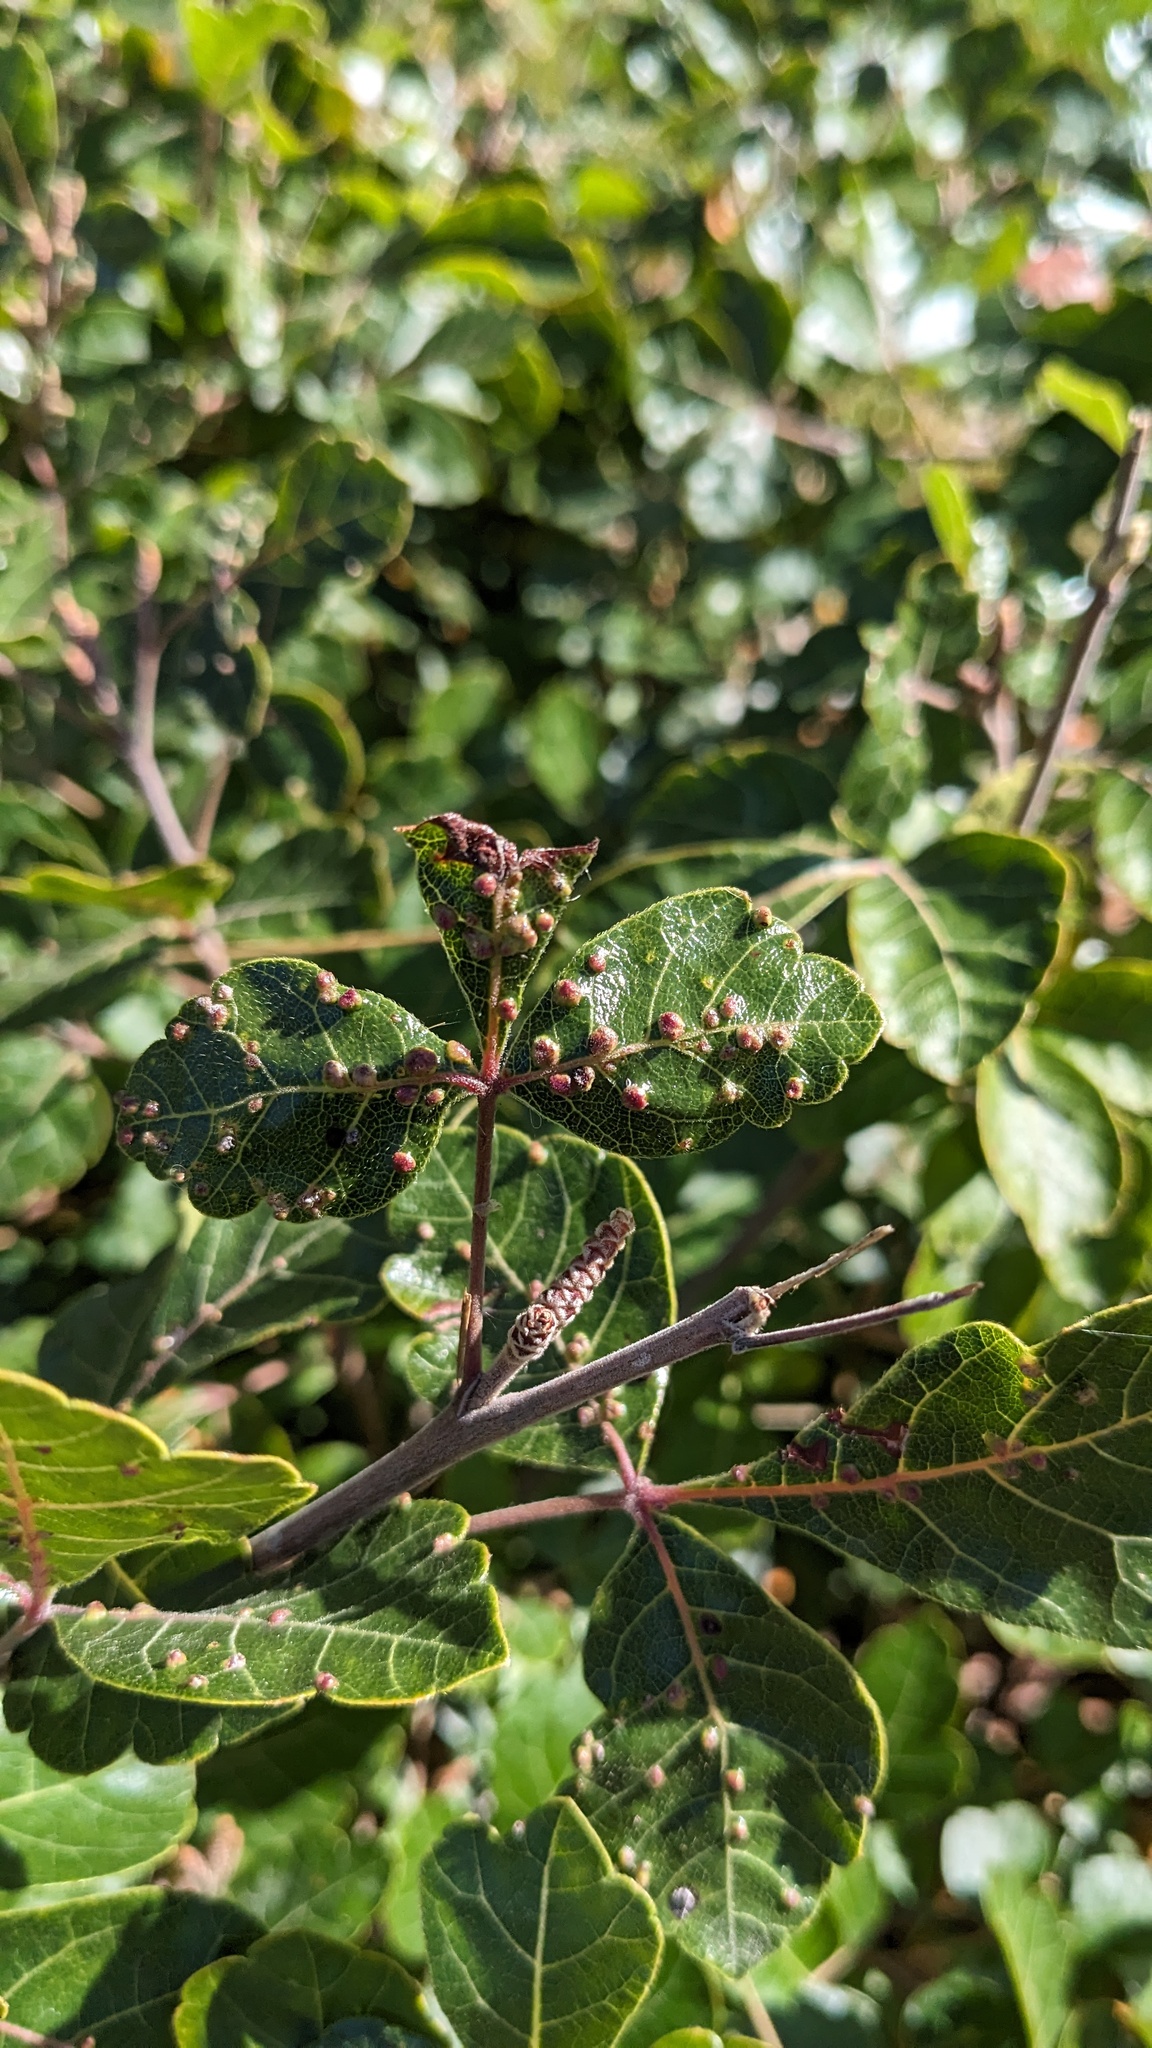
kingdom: Animalia
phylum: Arthropoda
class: Arachnida
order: Trombidiformes
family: Eriophyidae
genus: Aculops
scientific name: Aculops
